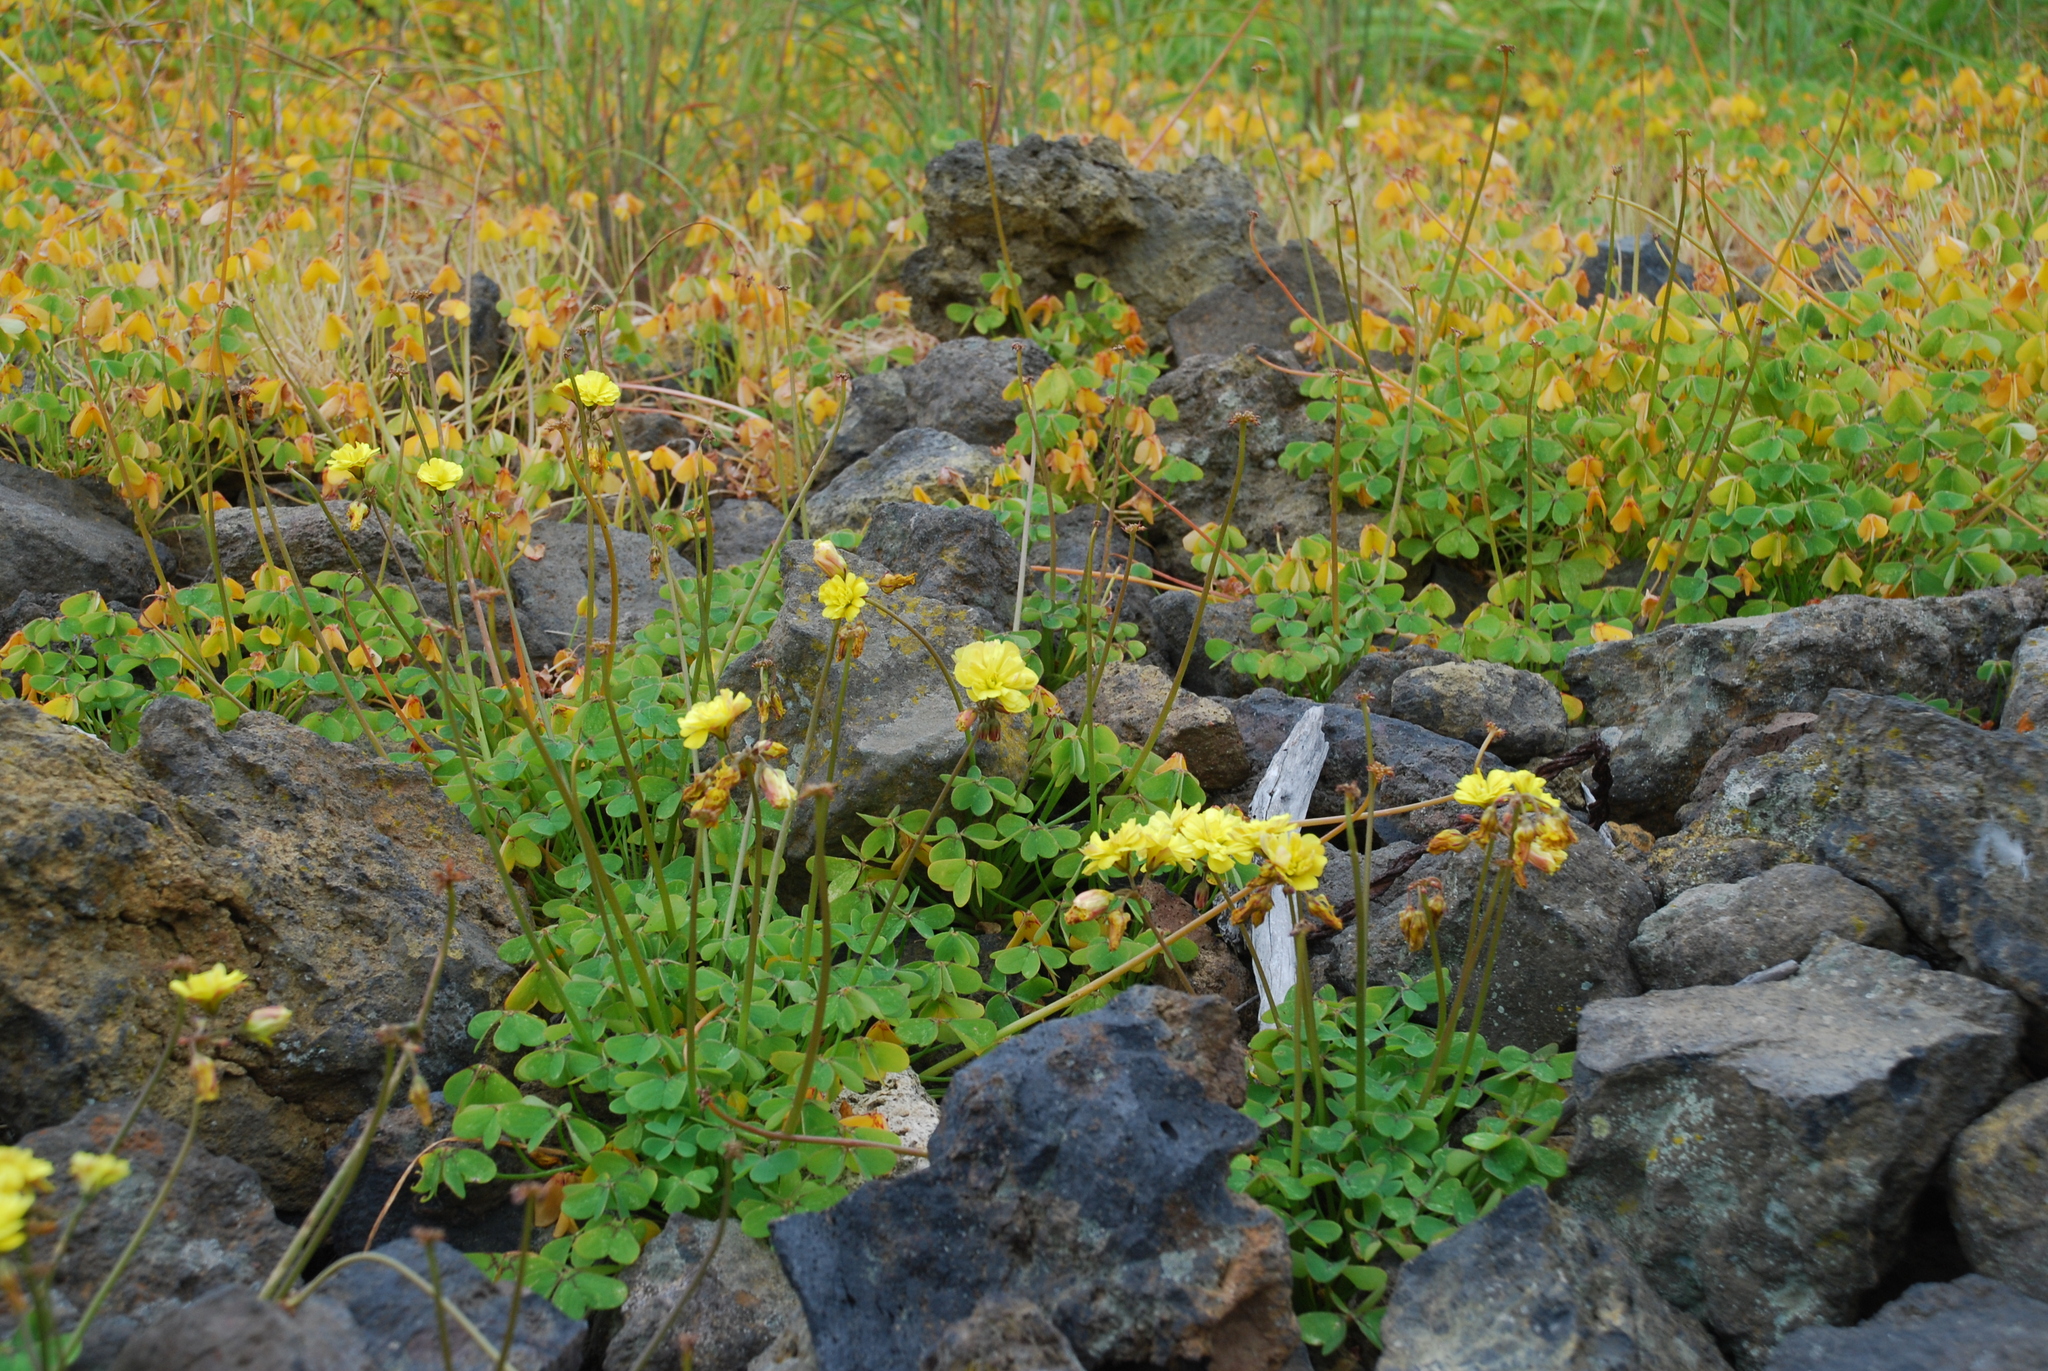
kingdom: Plantae
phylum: Tracheophyta
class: Magnoliopsida
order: Oxalidales
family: Oxalidaceae
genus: Oxalis
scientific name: Oxalis pes-caprae
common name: Bermuda-buttercup
